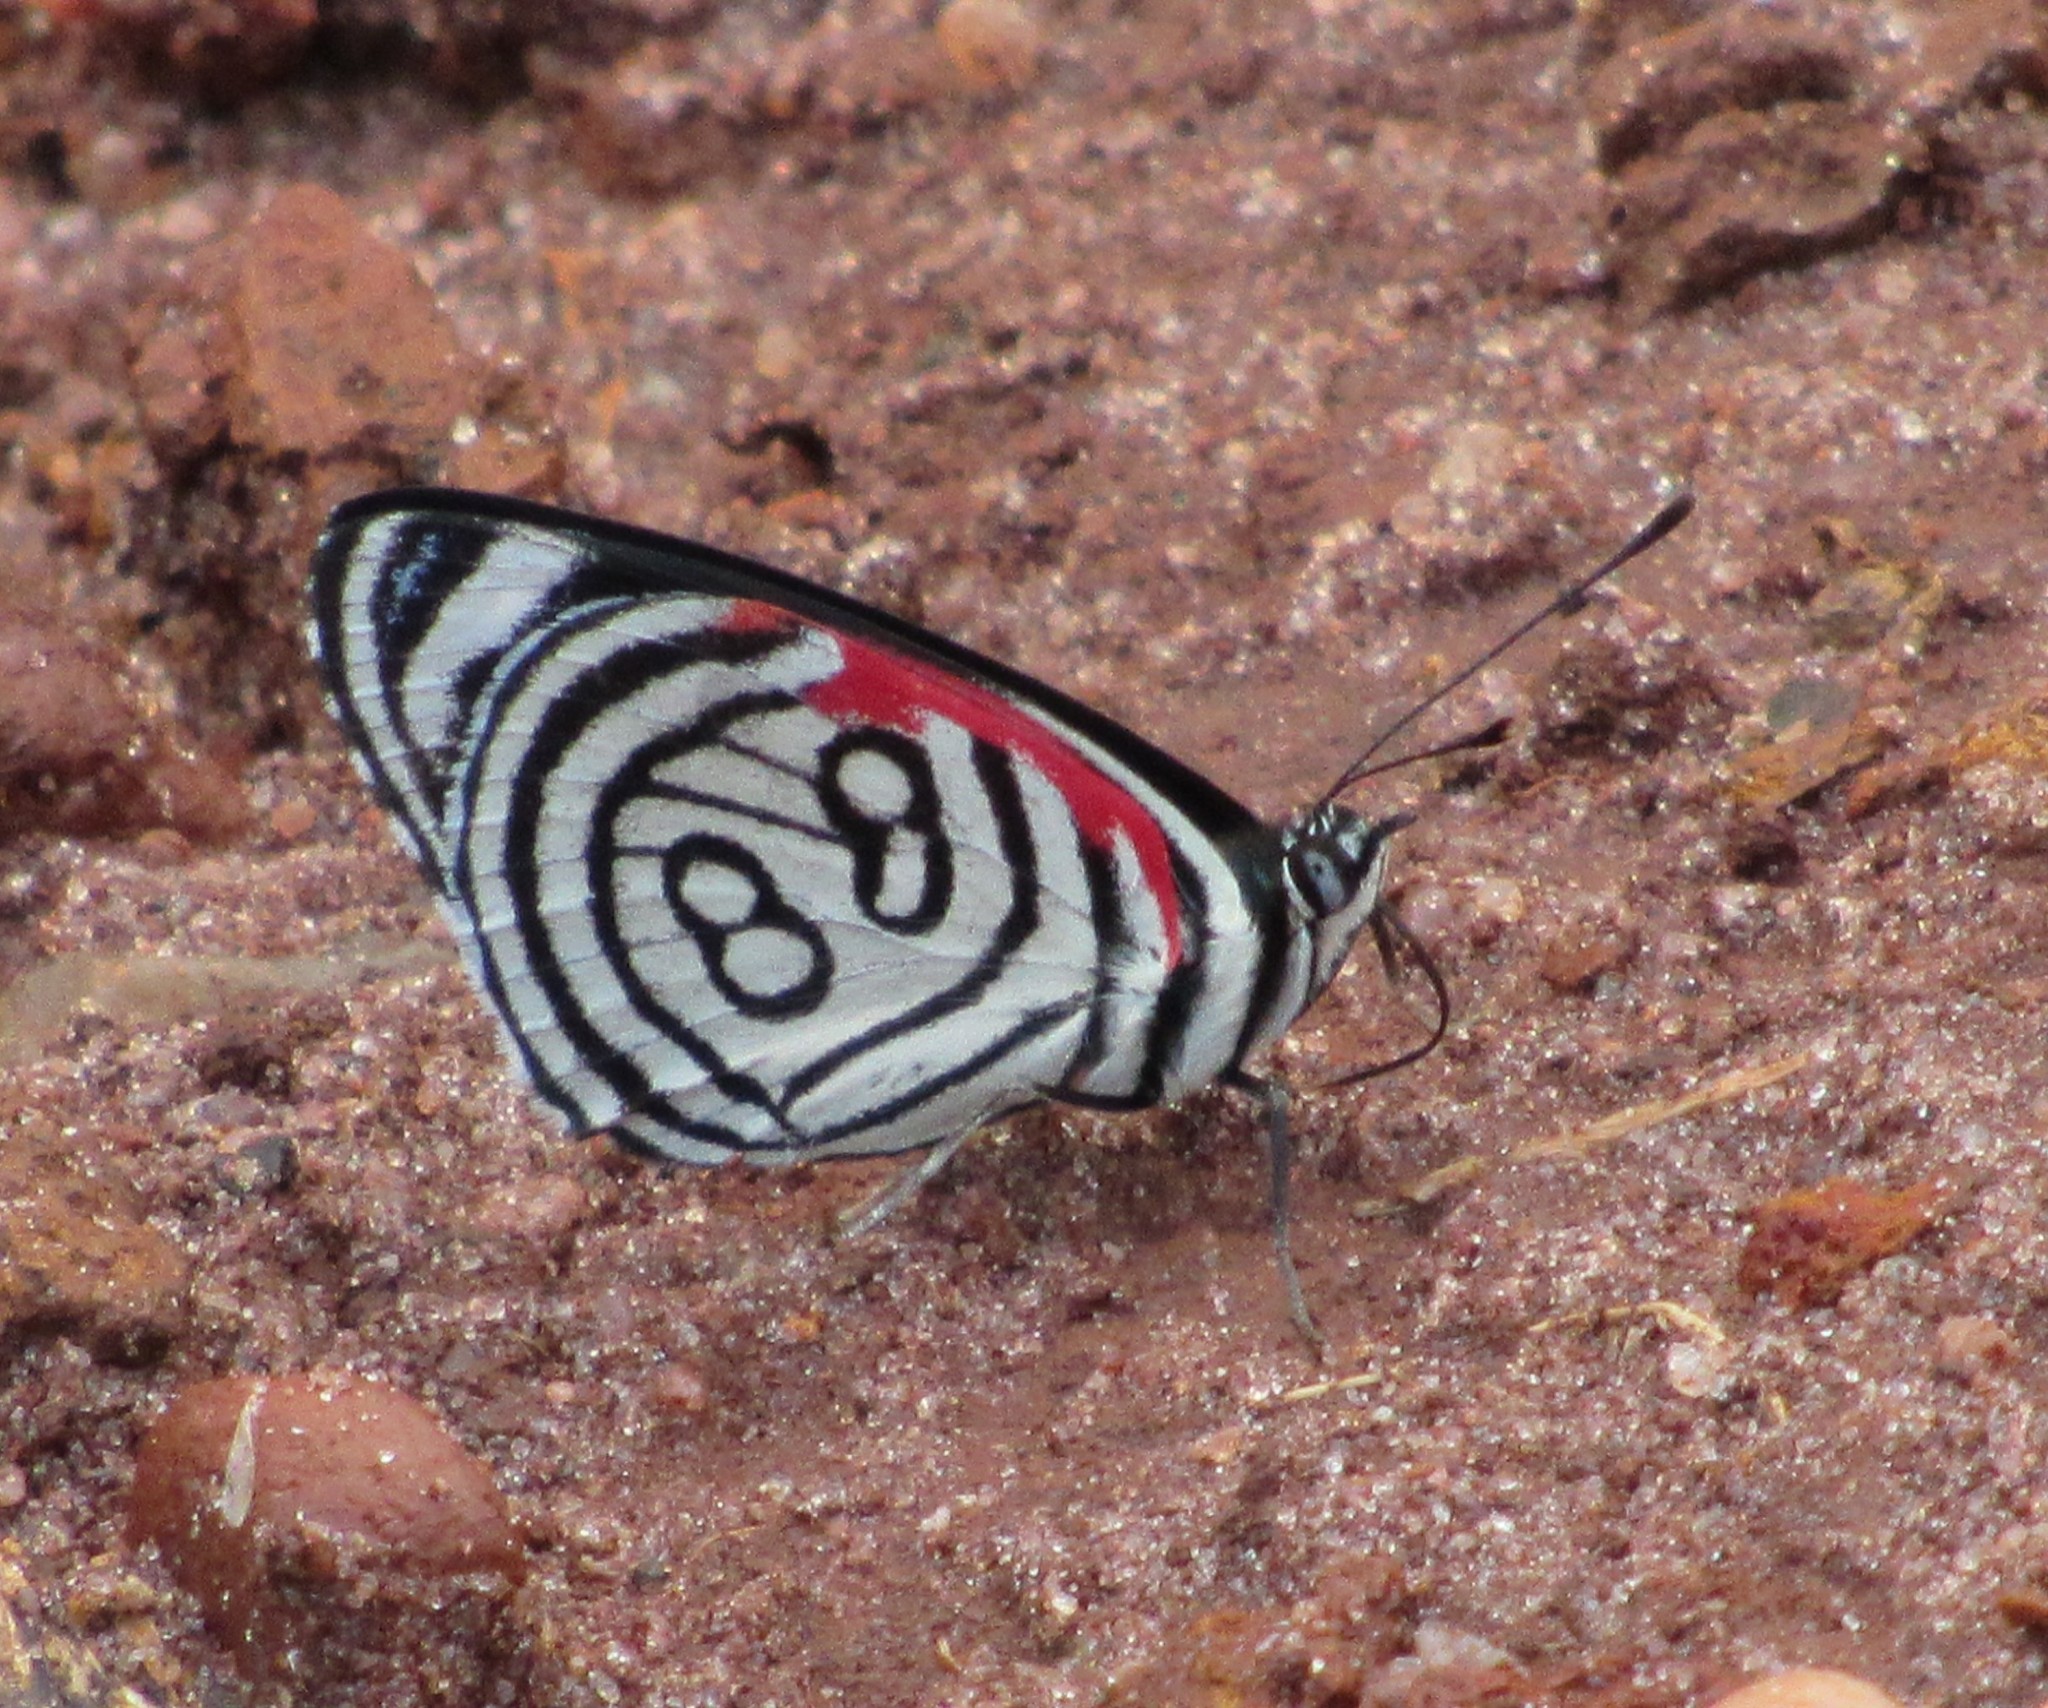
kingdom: Animalia
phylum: Arthropoda
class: Insecta
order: Lepidoptera
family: Nymphalidae
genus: Diaethria
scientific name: Diaethria candrena
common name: Number eighty
